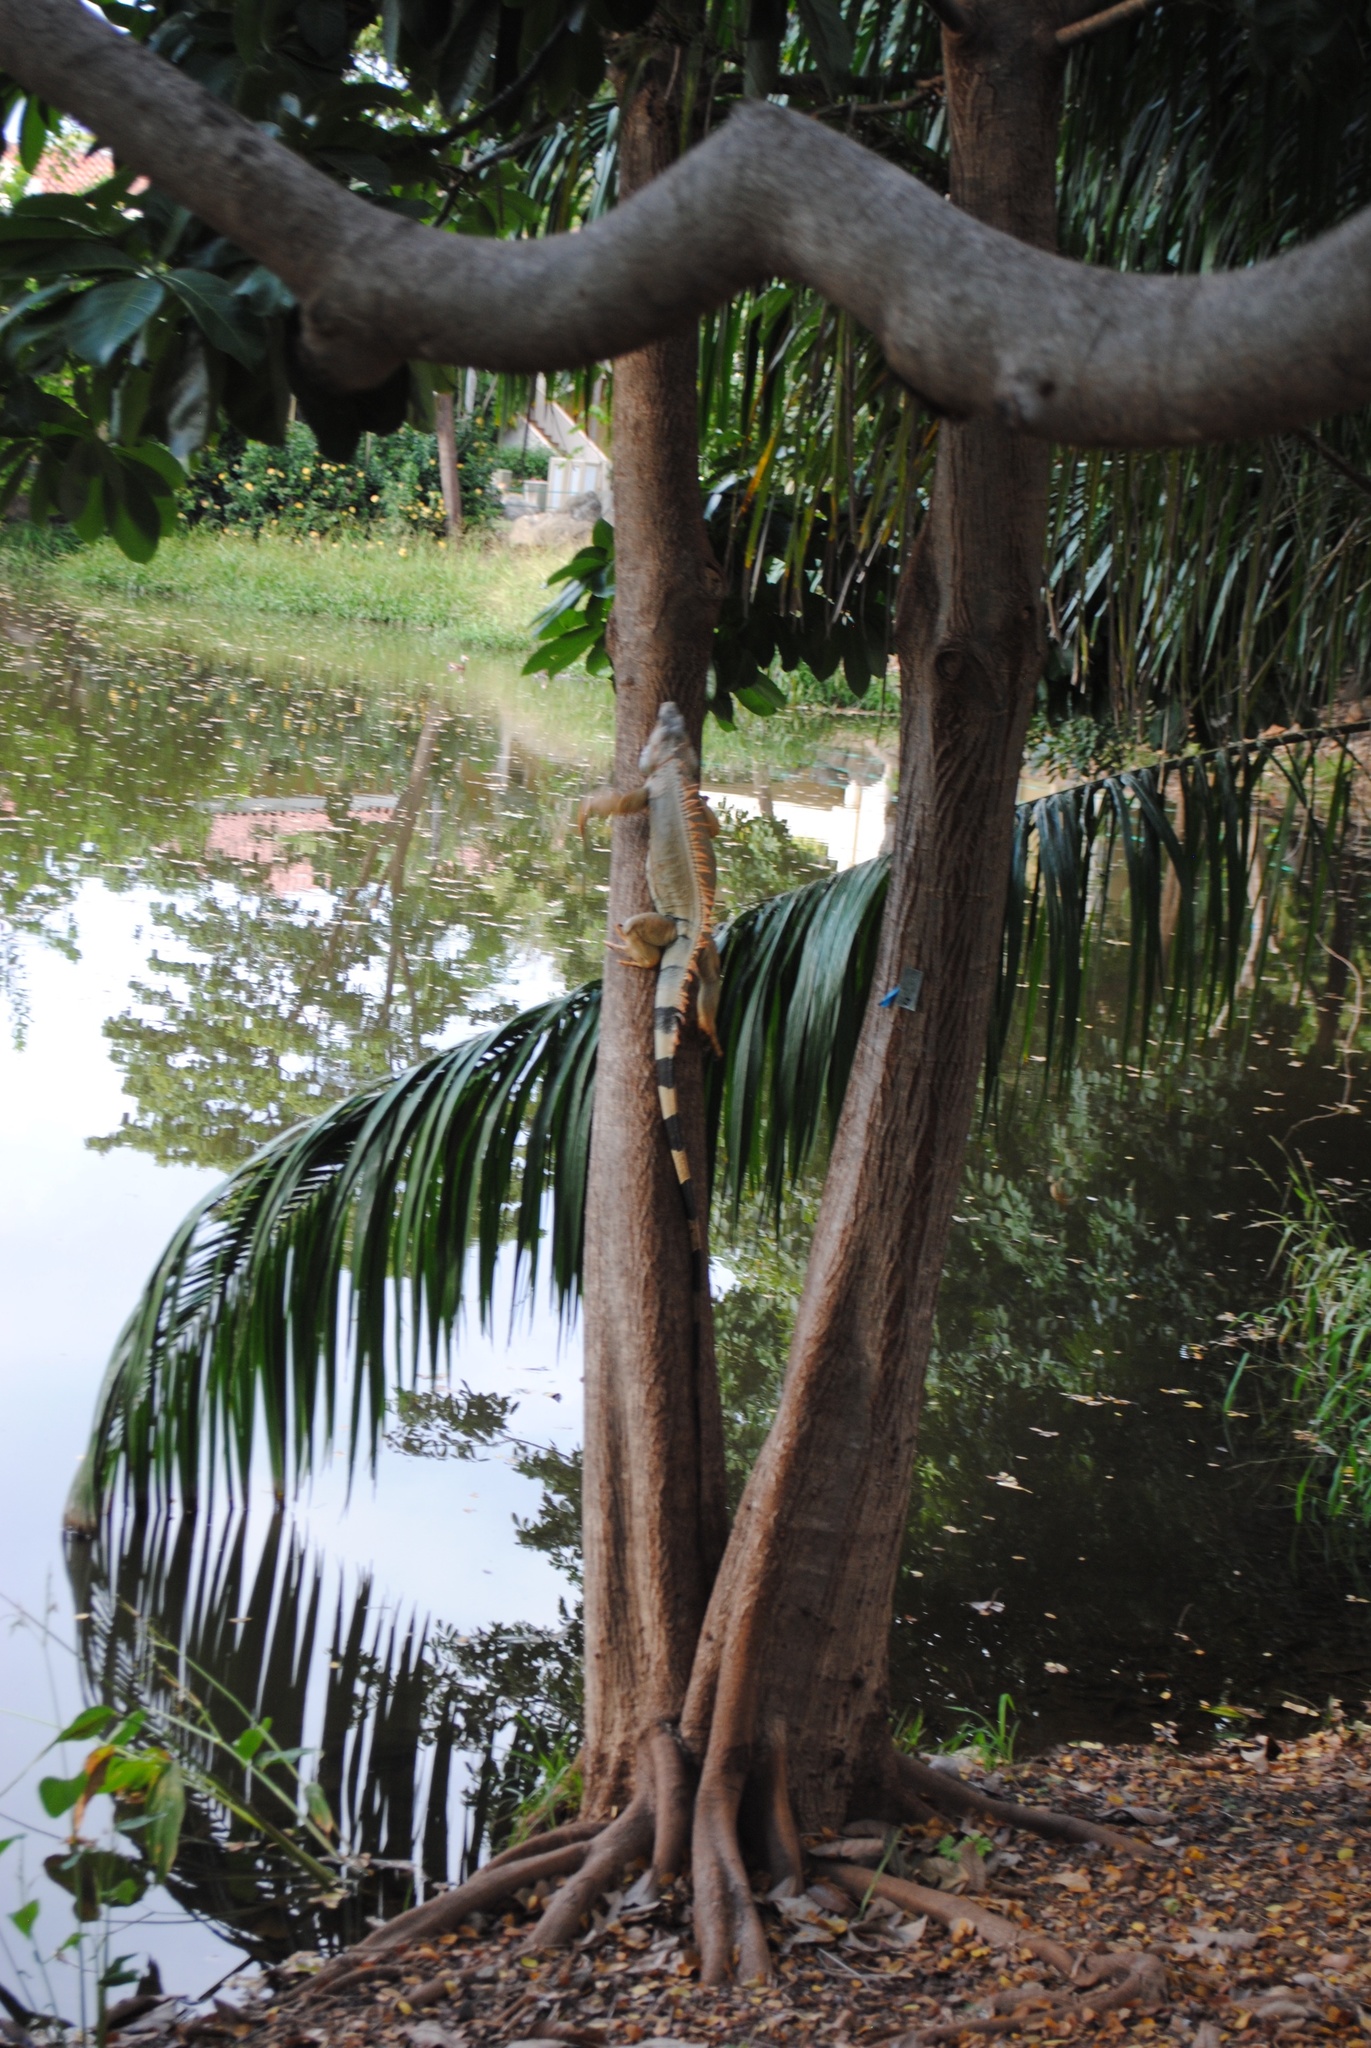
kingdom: Animalia
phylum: Chordata
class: Squamata
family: Iguanidae
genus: Iguana
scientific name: Iguana iguana
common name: Green iguana
